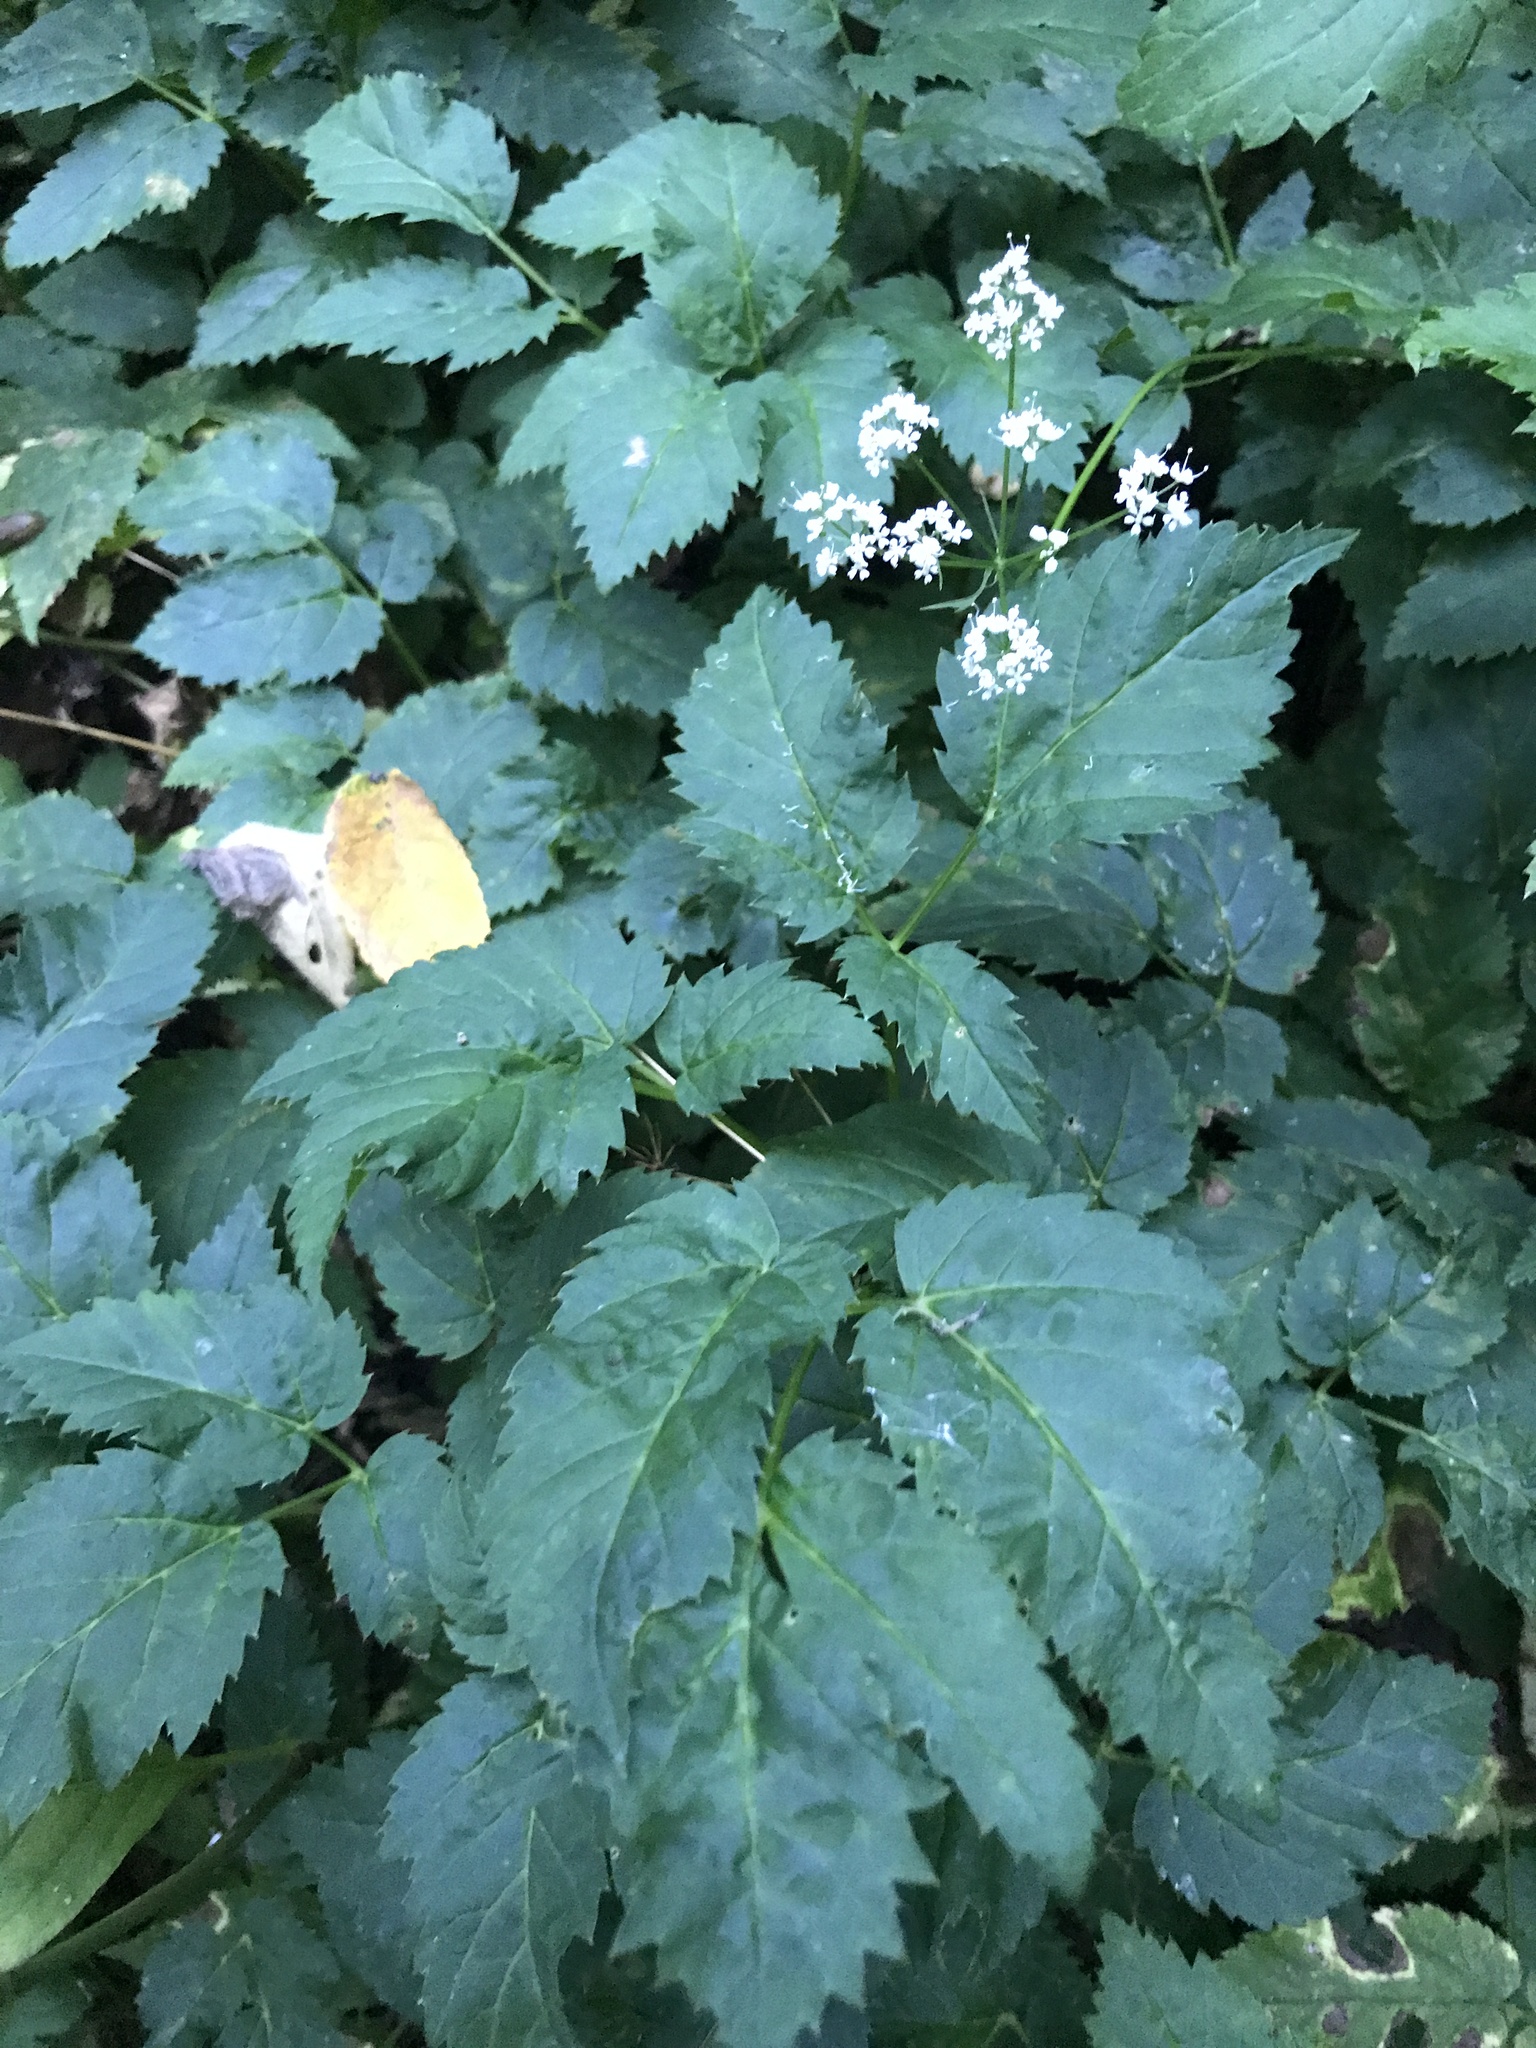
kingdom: Plantae
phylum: Tracheophyta
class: Magnoliopsida
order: Apiales
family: Apiaceae
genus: Aegopodium
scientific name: Aegopodium podagraria
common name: Ground-elder
